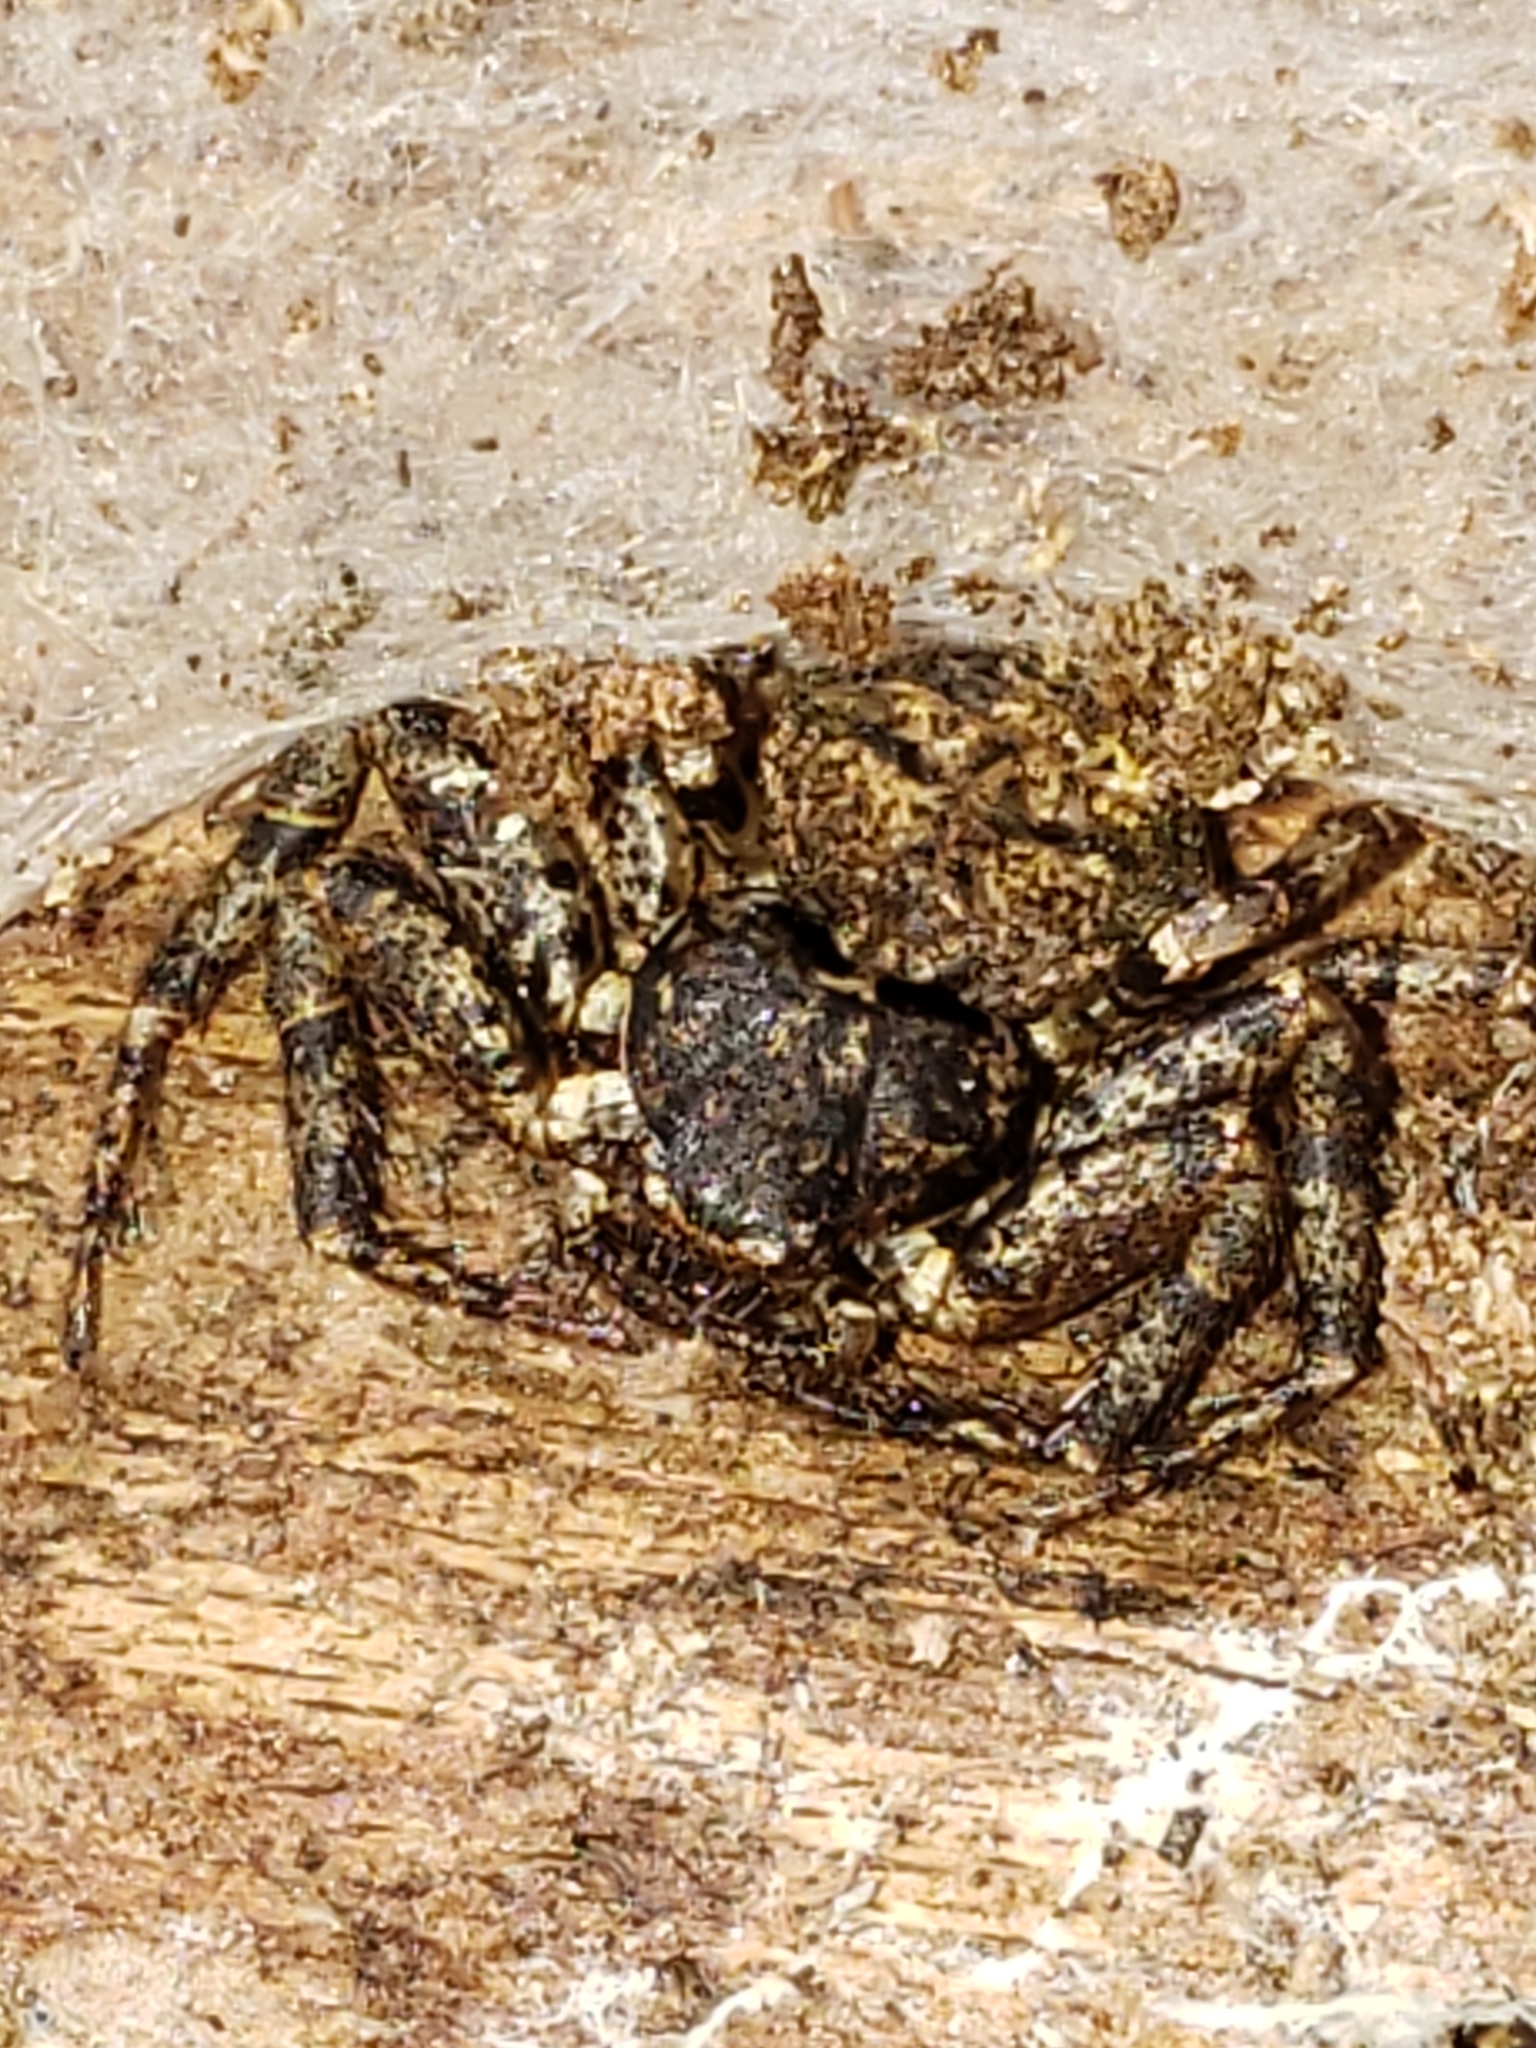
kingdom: Animalia
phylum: Arthropoda
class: Arachnida
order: Araneae
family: Thomisidae
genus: Bassaniana
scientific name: Bassaniana versicolor
